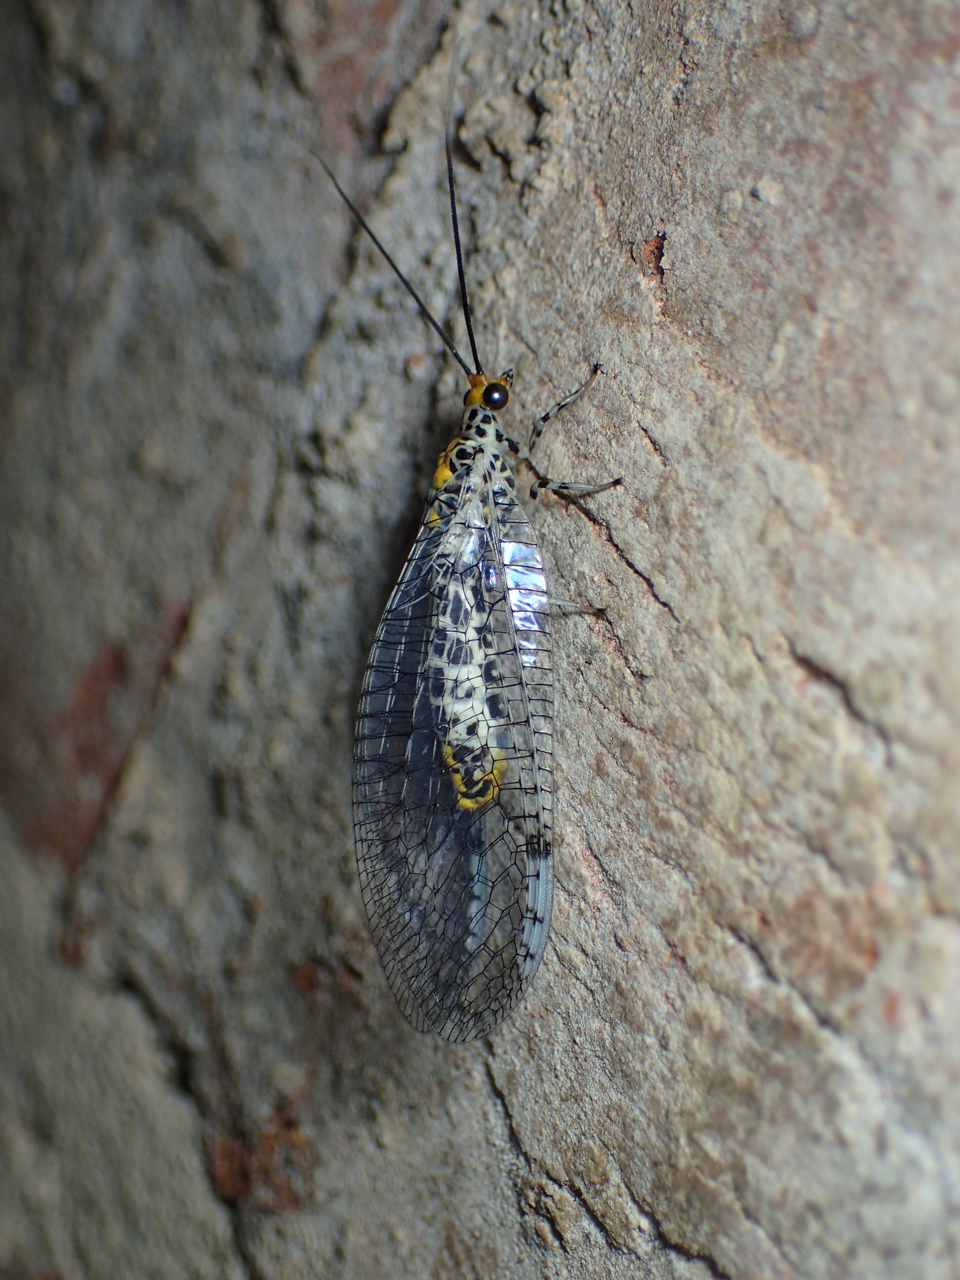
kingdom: Animalia
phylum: Arthropoda
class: Insecta
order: Neuroptera
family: Chrysopidae
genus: Abachrysa
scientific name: Abachrysa eureka
